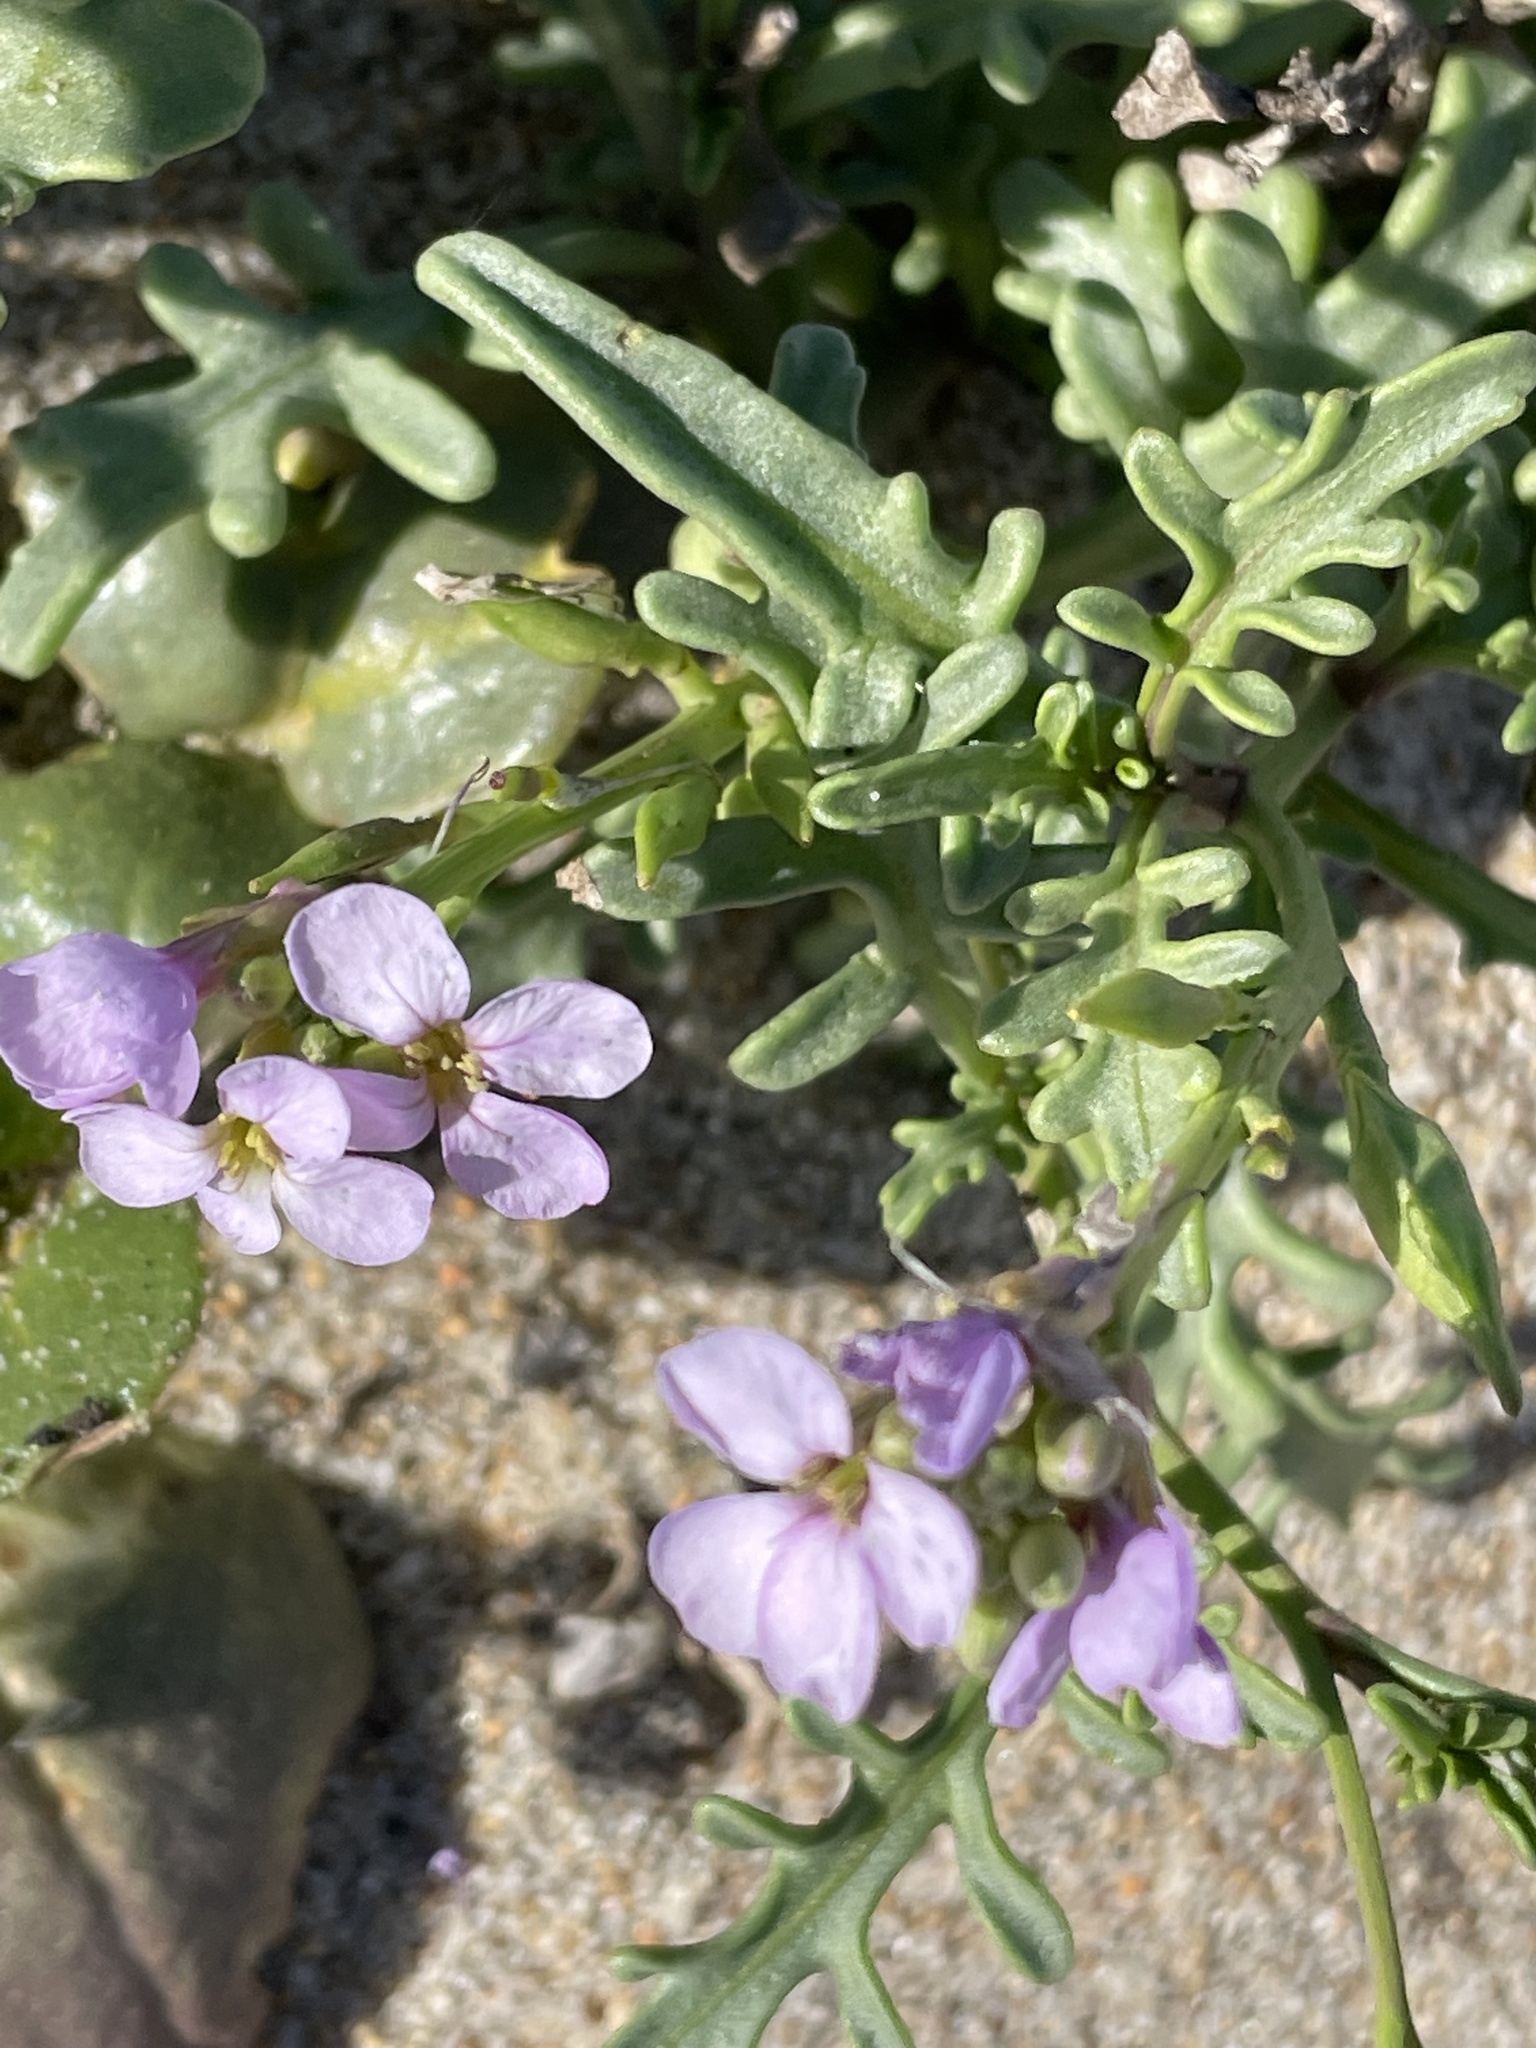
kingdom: Plantae
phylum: Tracheophyta
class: Magnoliopsida
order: Brassicales
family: Brassicaceae
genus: Cakile
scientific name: Cakile maritima
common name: Sea rocket
